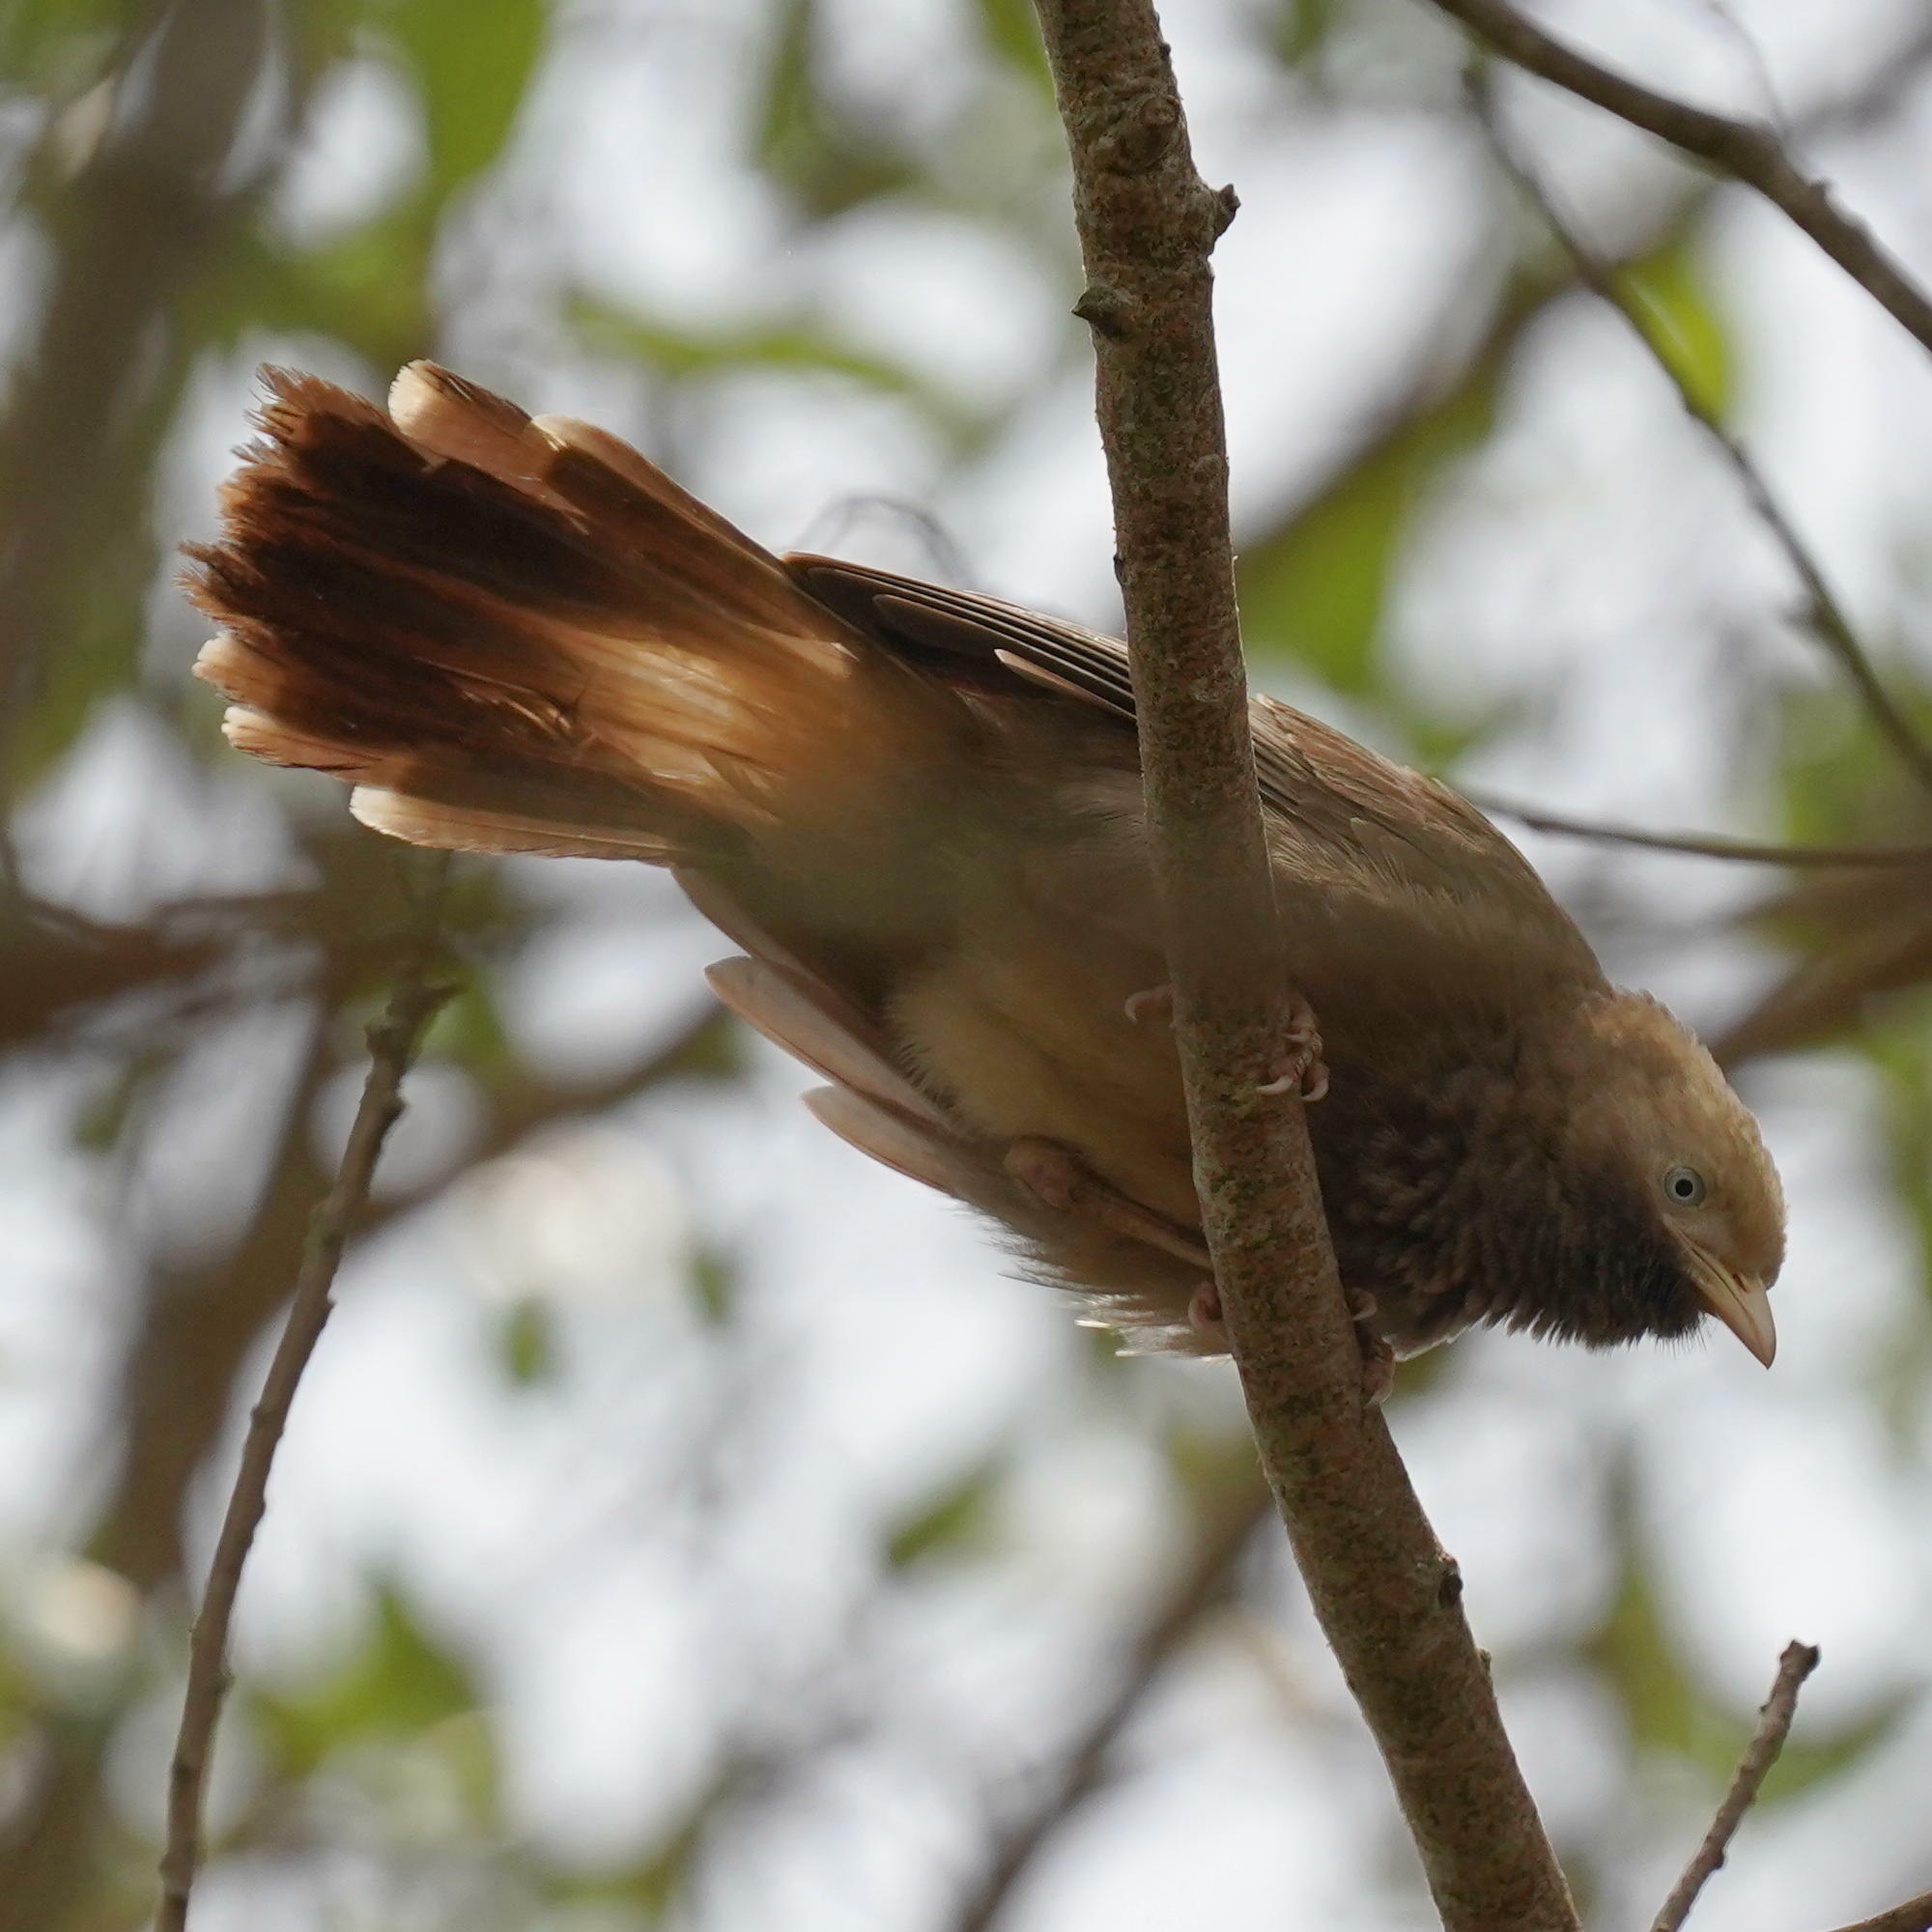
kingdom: Animalia
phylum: Chordata
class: Aves
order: Passeriformes
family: Leiothrichidae
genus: Turdoides
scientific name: Turdoides affinis
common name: Yellow-billed babbler
